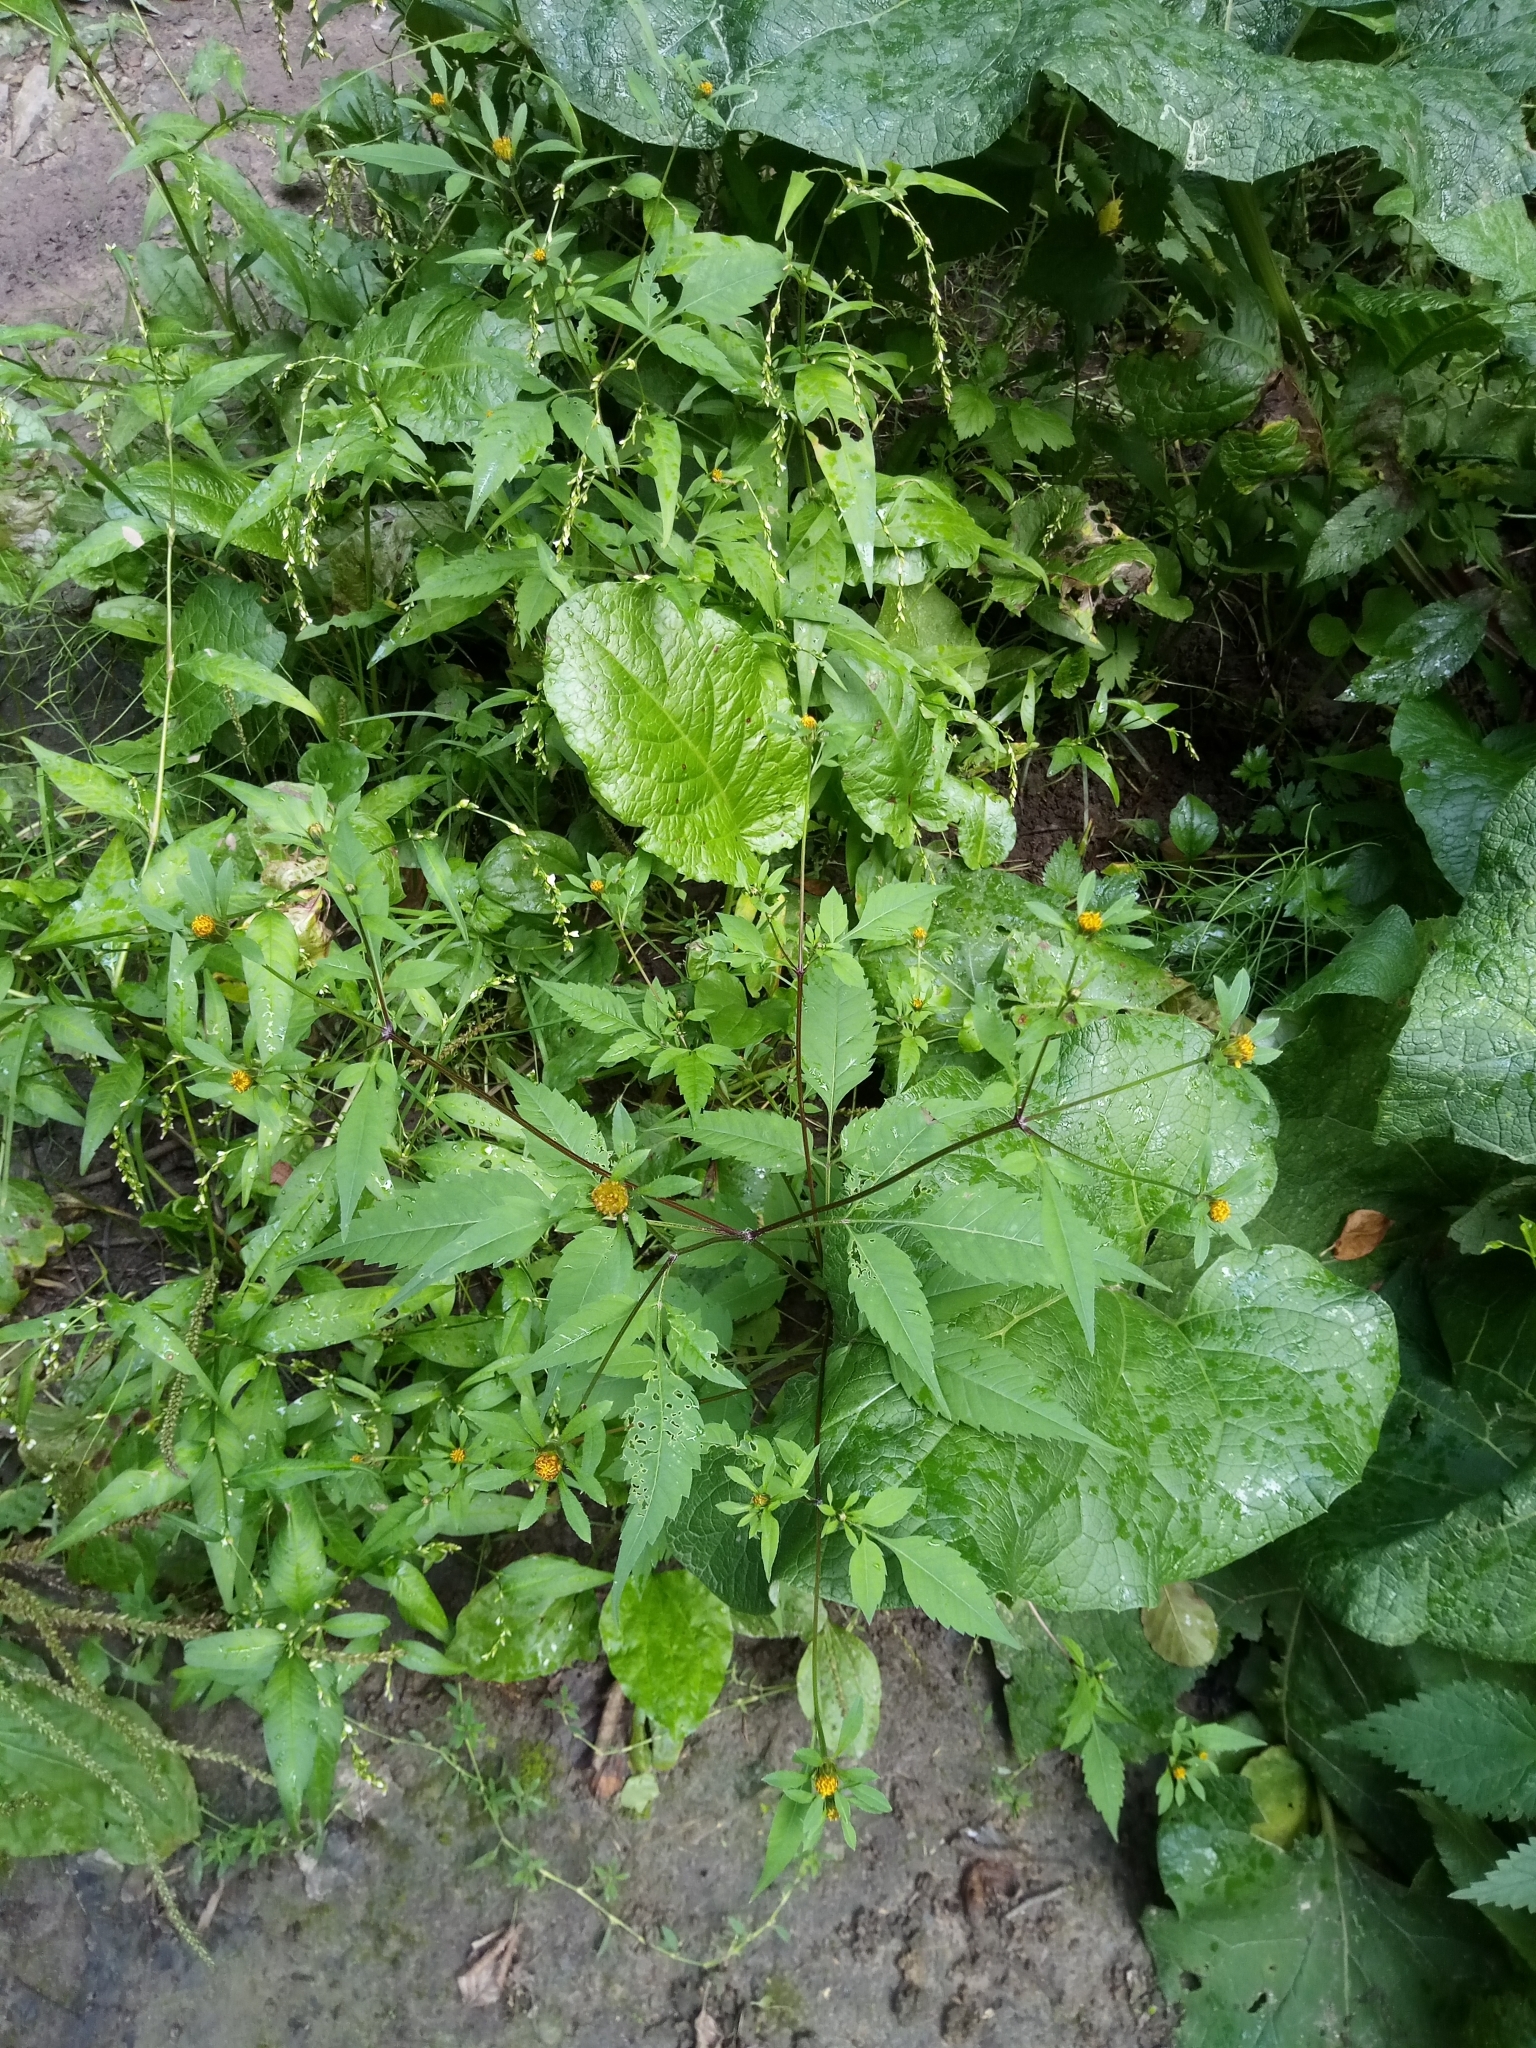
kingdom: Plantae
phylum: Tracheophyta
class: Magnoliopsida
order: Asterales
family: Asteraceae
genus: Bidens
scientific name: Bidens frondosa
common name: Beggarticks
